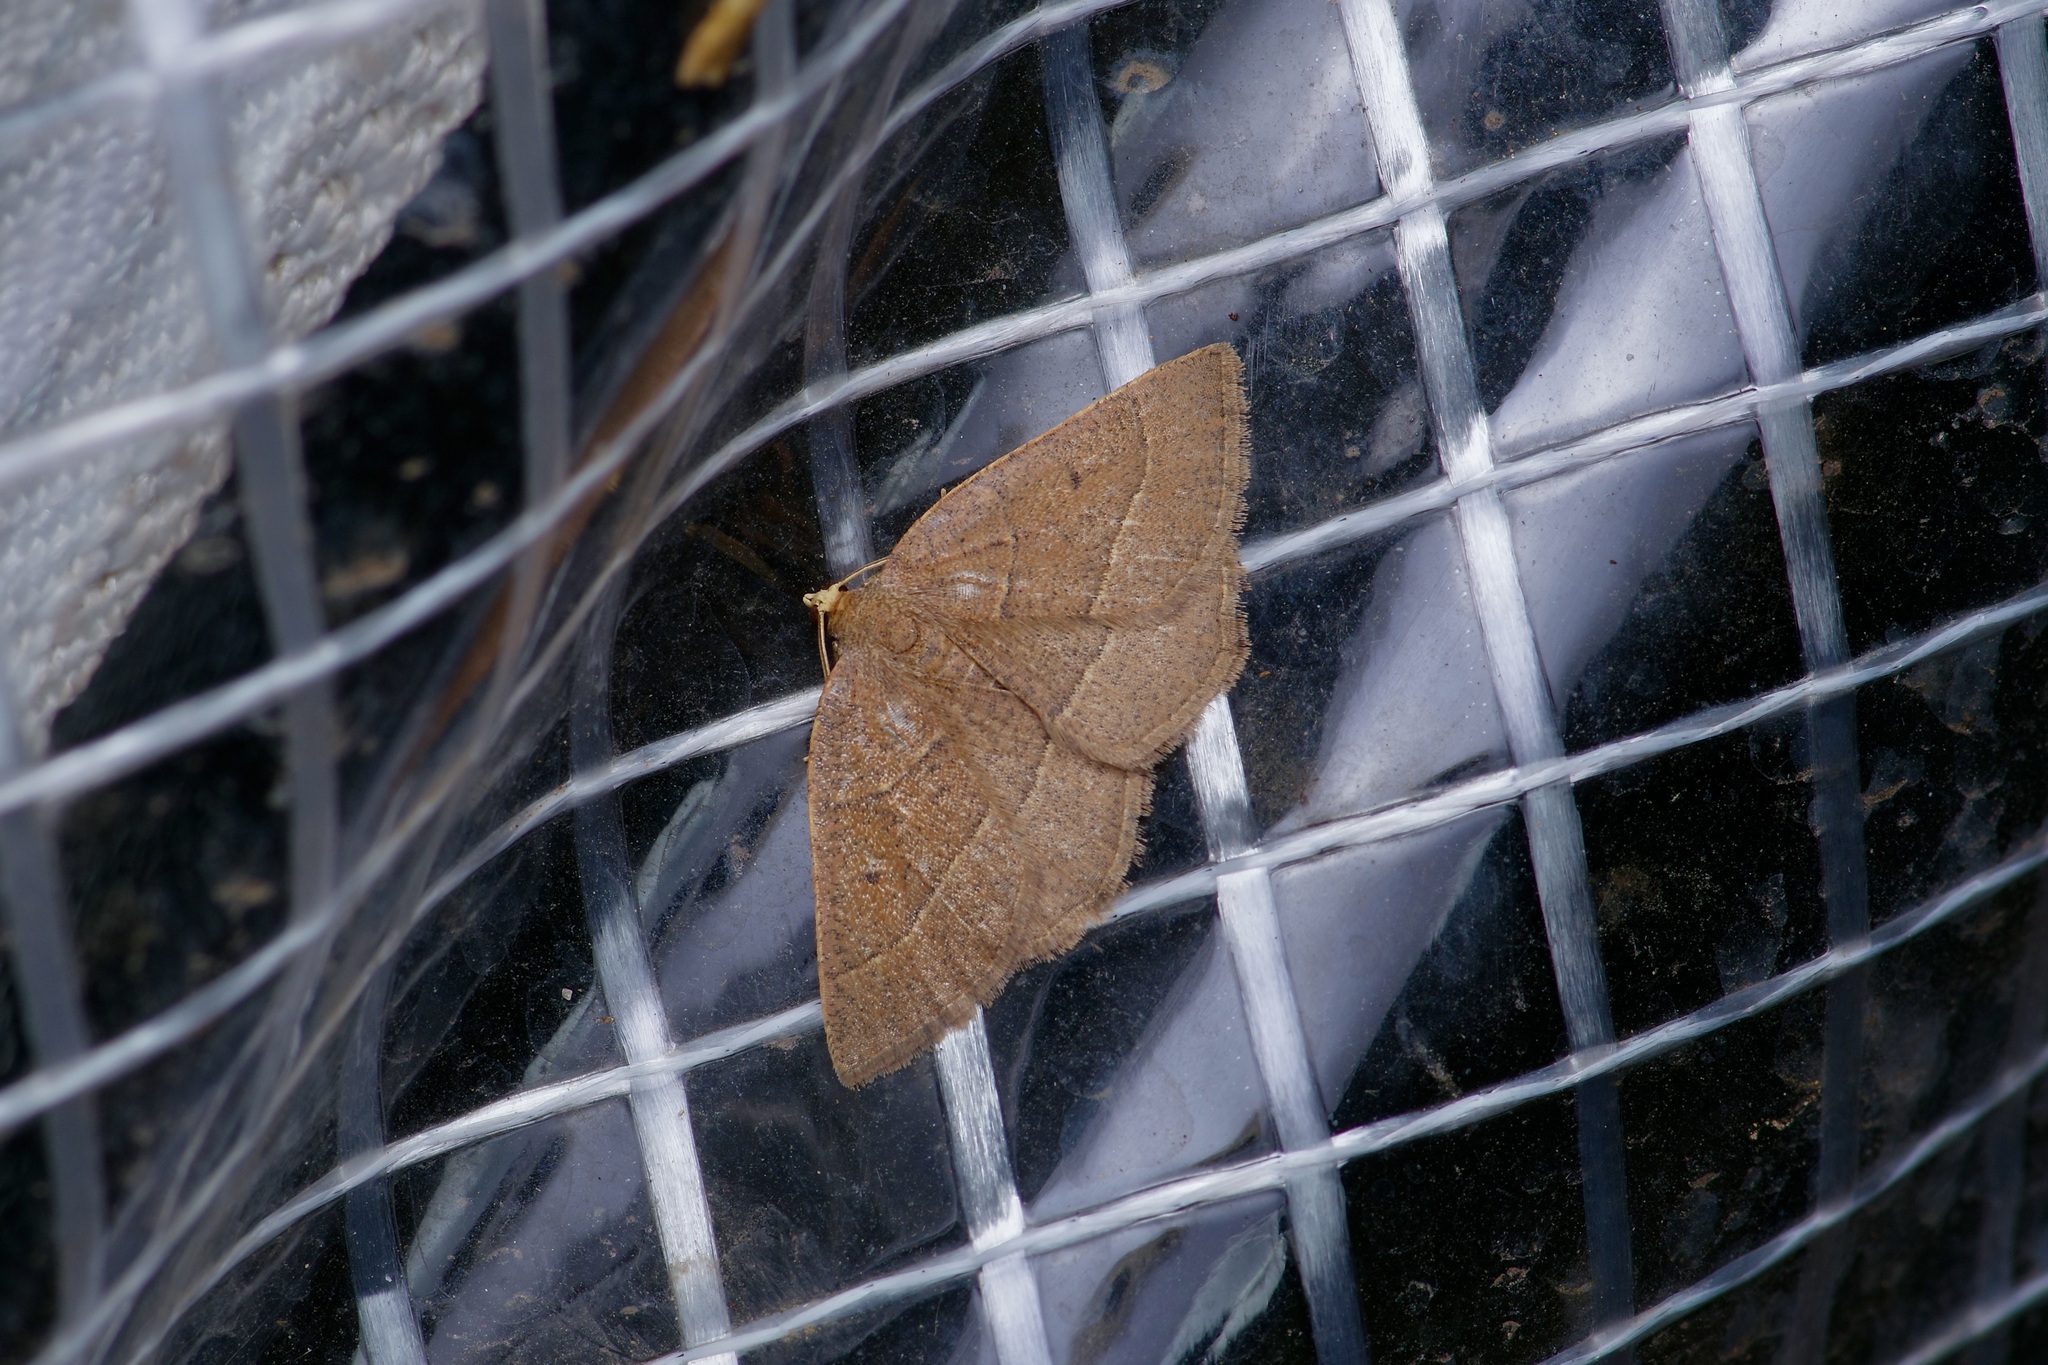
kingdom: Animalia
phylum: Arthropoda
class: Insecta
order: Lepidoptera
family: Geometridae
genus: Episemasia
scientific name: Episemasia cervinaria
